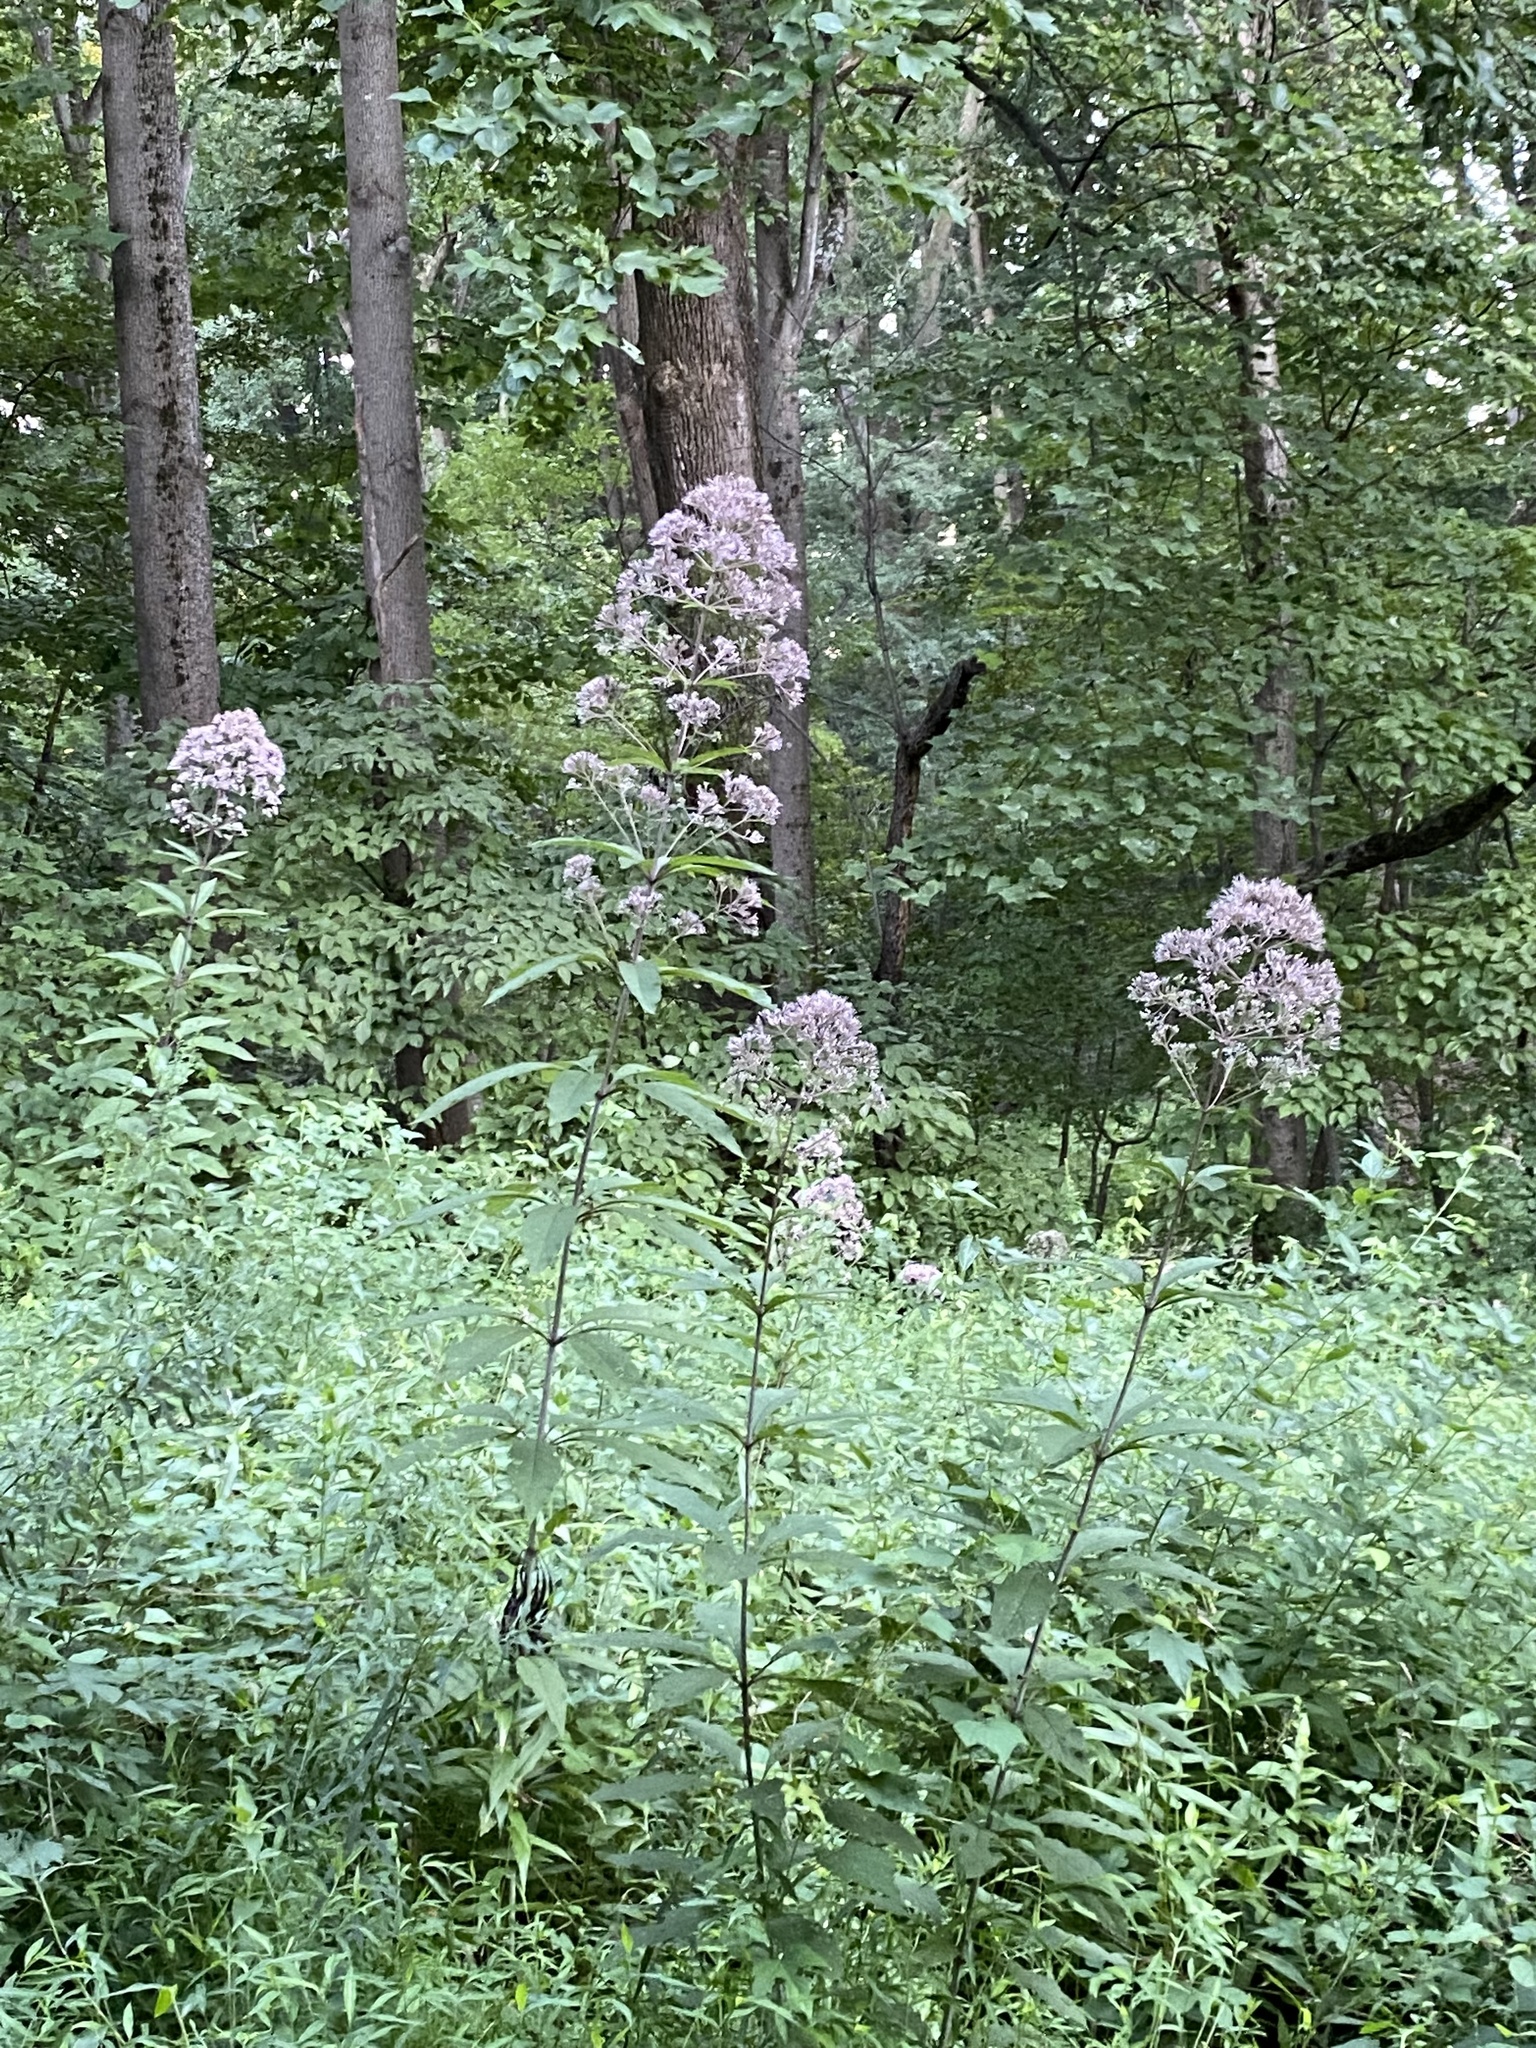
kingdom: Plantae
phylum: Tracheophyta
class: Magnoliopsida
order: Asterales
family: Asteraceae
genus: Eutrochium
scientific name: Eutrochium fistulosum
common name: Trumpetweed
